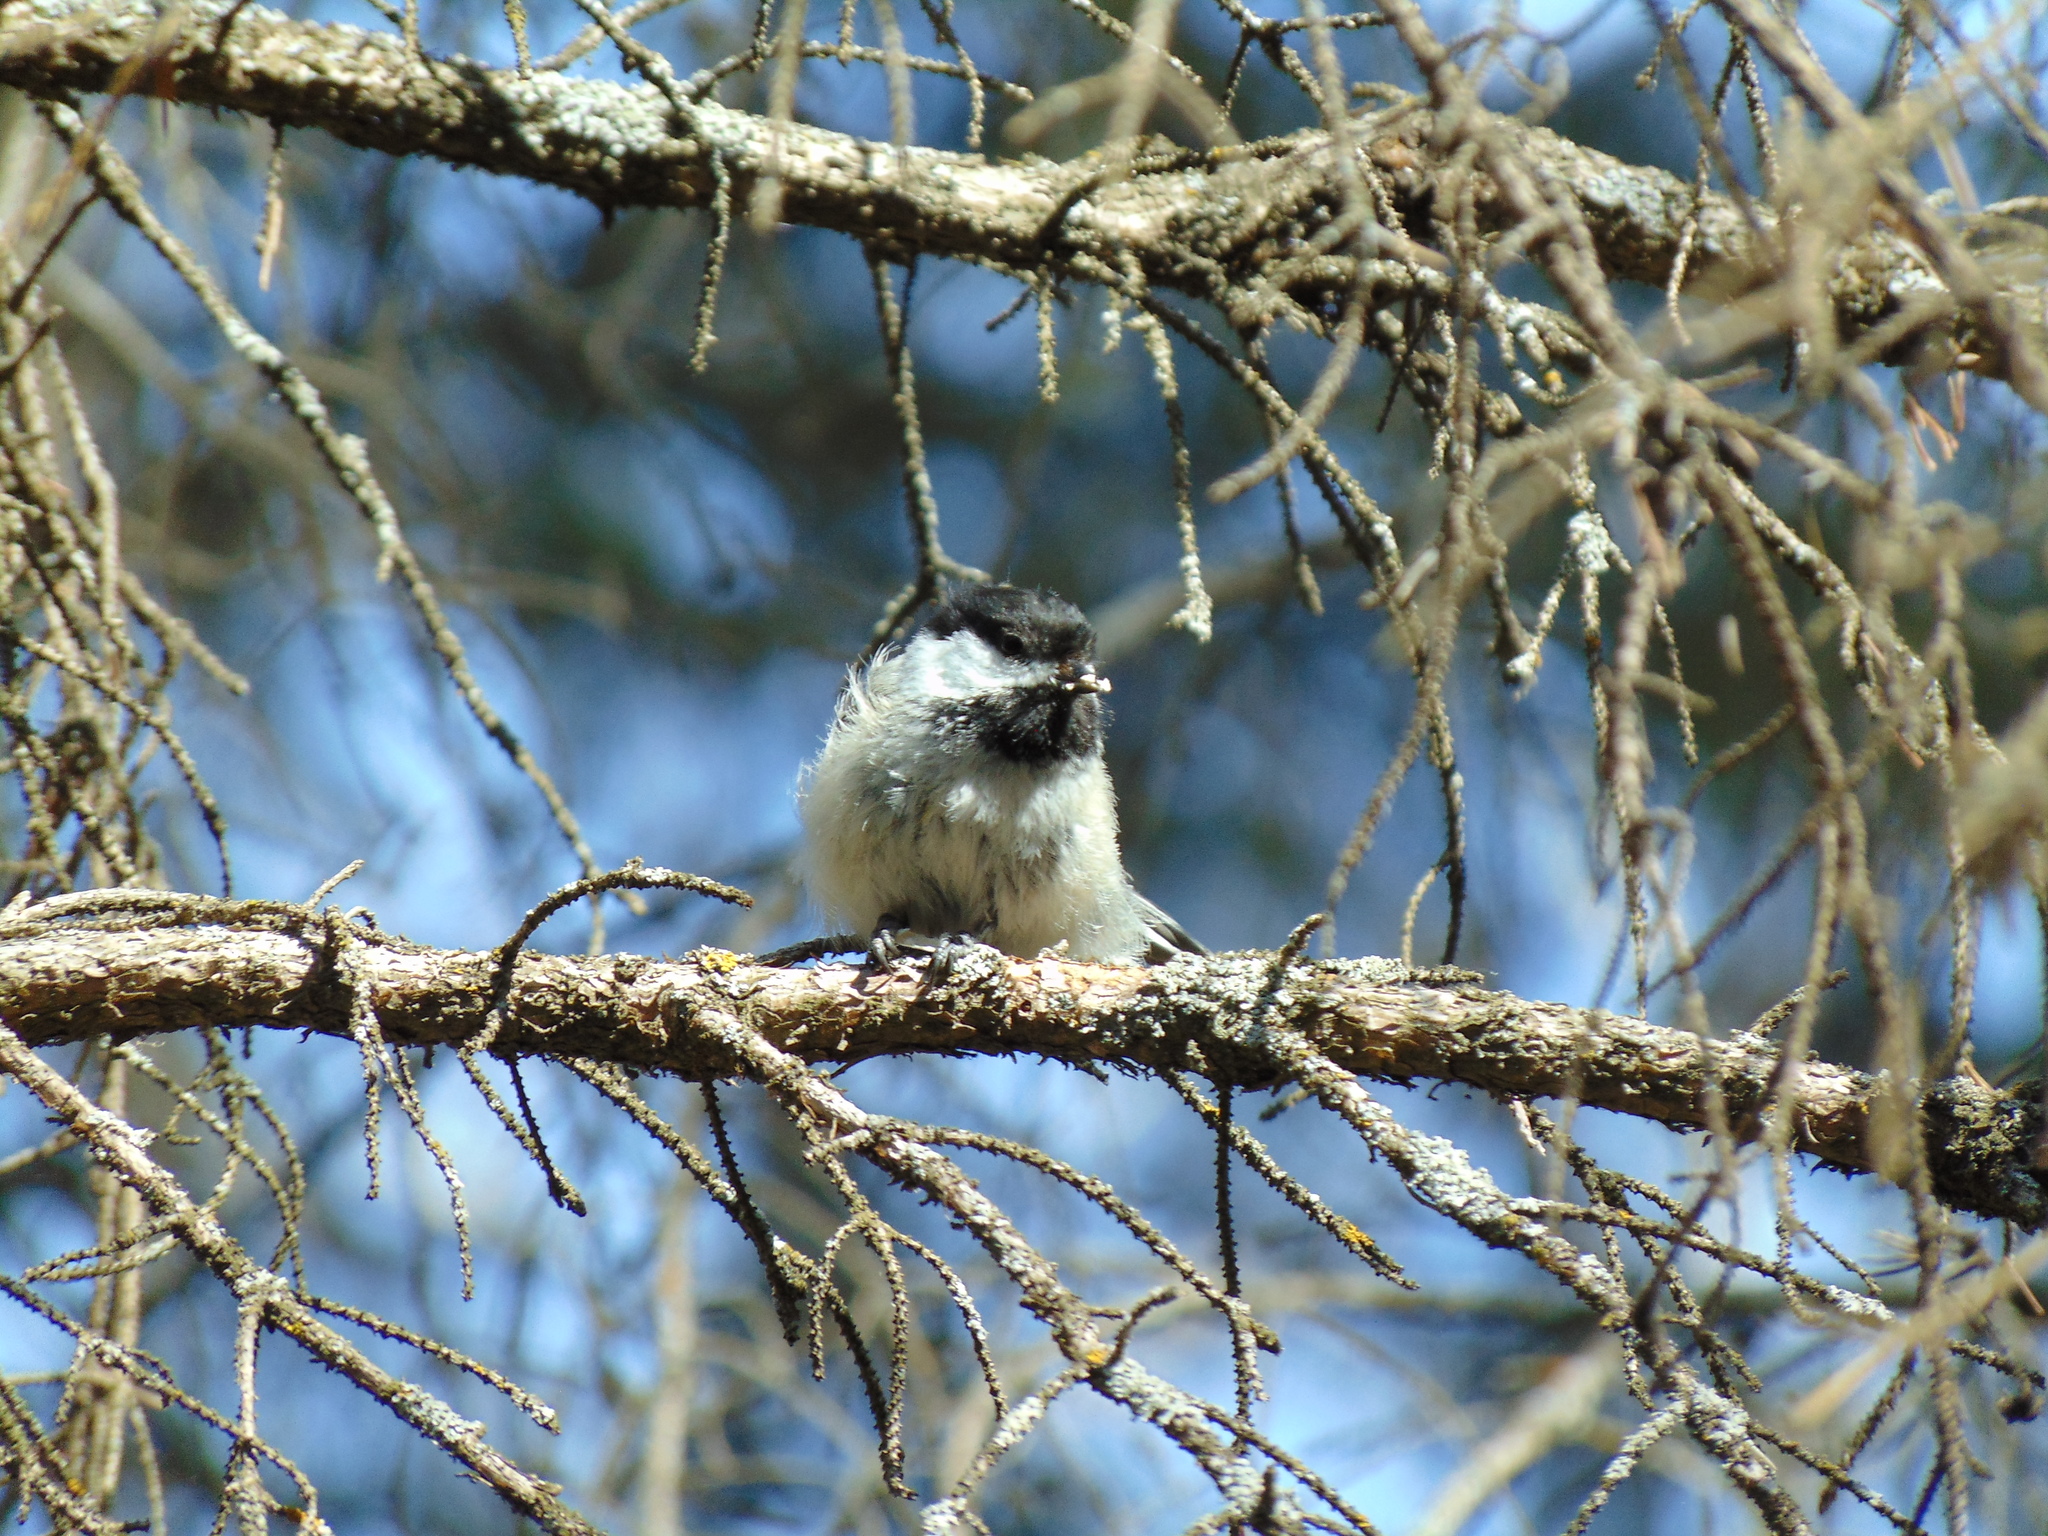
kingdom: Animalia
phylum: Chordata
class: Aves
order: Passeriformes
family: Paridae
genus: Poecile
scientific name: Poecile atricapillus
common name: Black-capped chickadee
